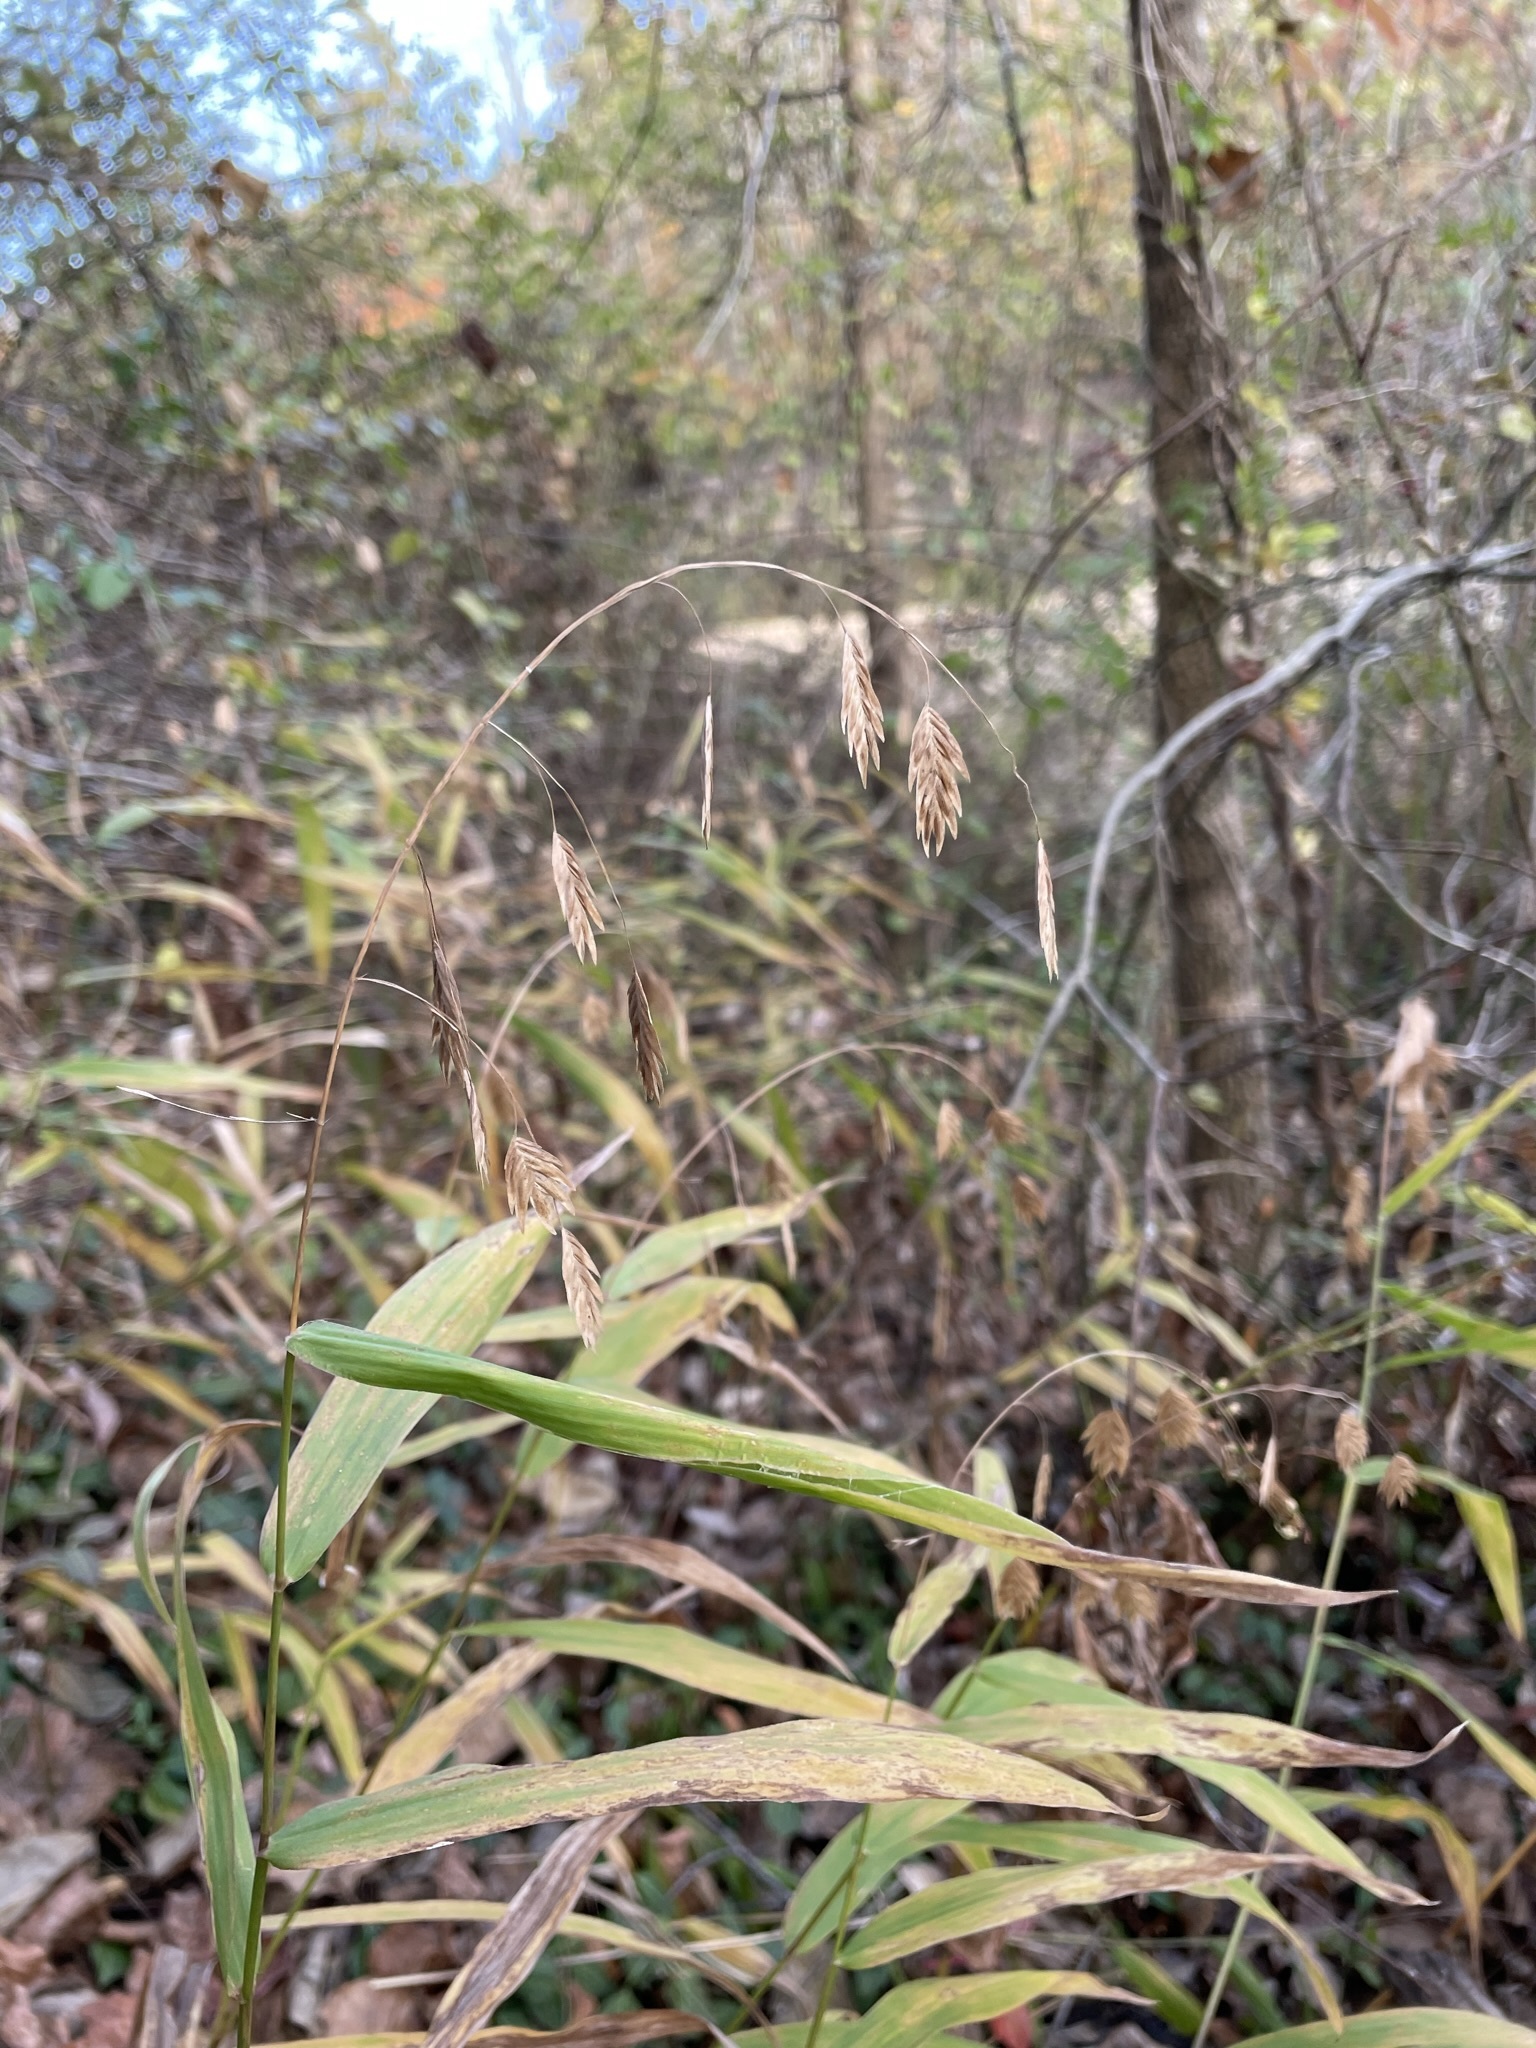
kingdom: Plantae
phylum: Tracheophyta
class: Liliopsida
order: Poales
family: Poaceae
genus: Chasmanthium
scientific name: Chasmanthium latifolium
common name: Broad-leaved chasmanthium
